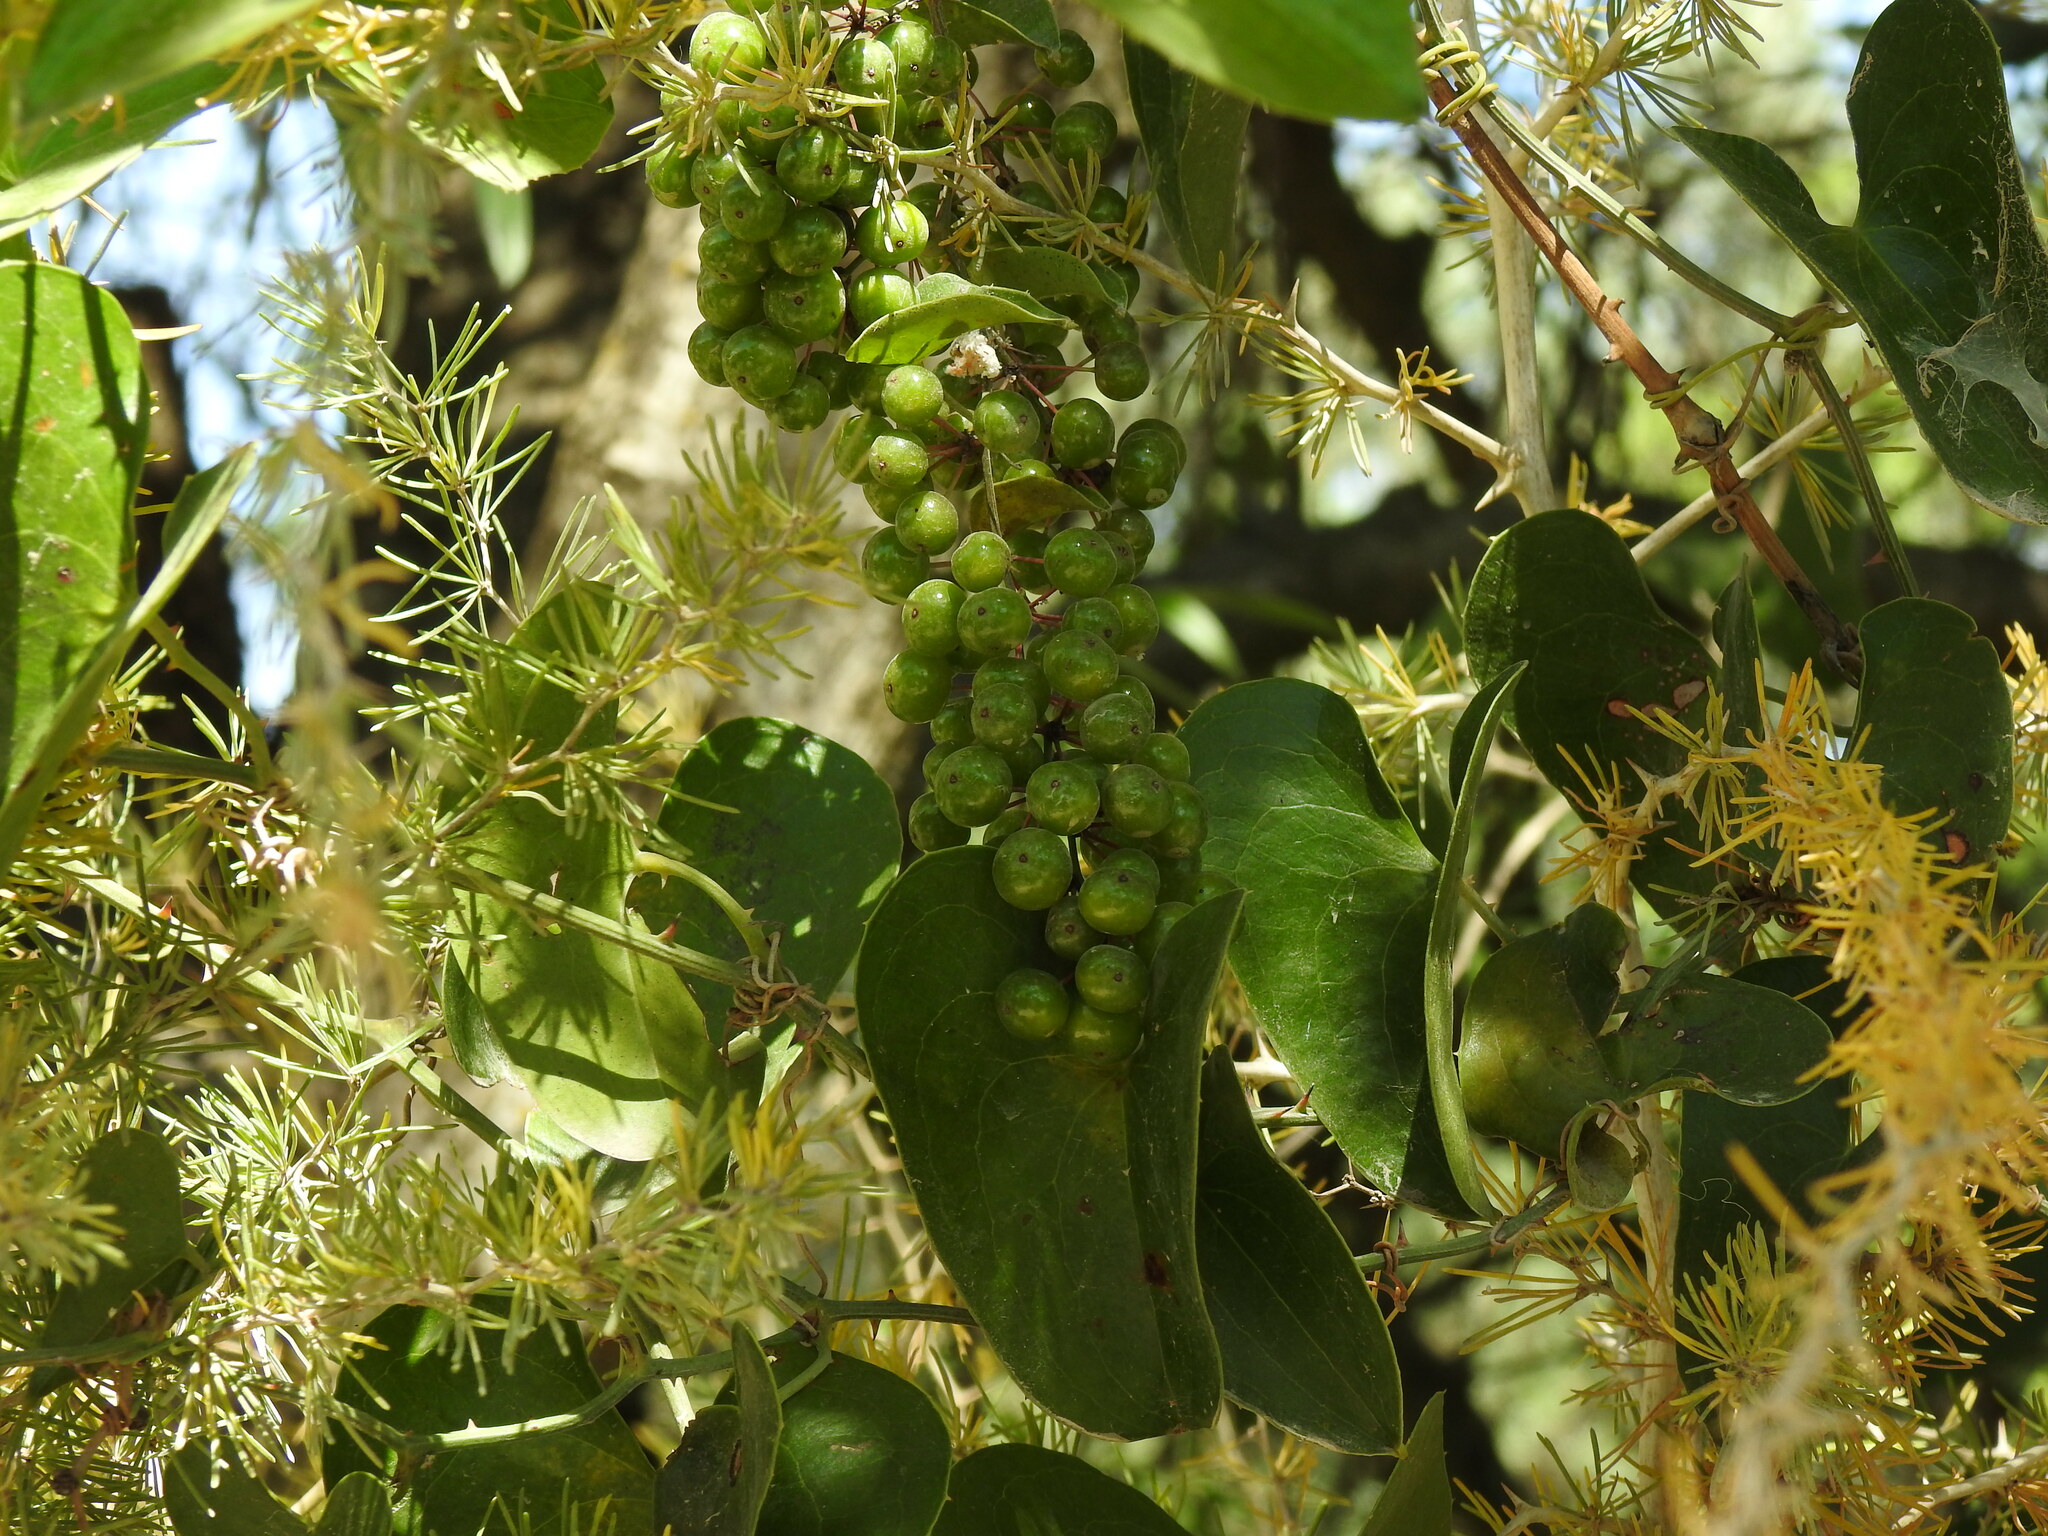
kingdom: Plantae
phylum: Tracheophyta
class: Liliopsida
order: Liliales
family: Smilacaceae
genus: Smilax
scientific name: Smilax aspera
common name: Common smilax
